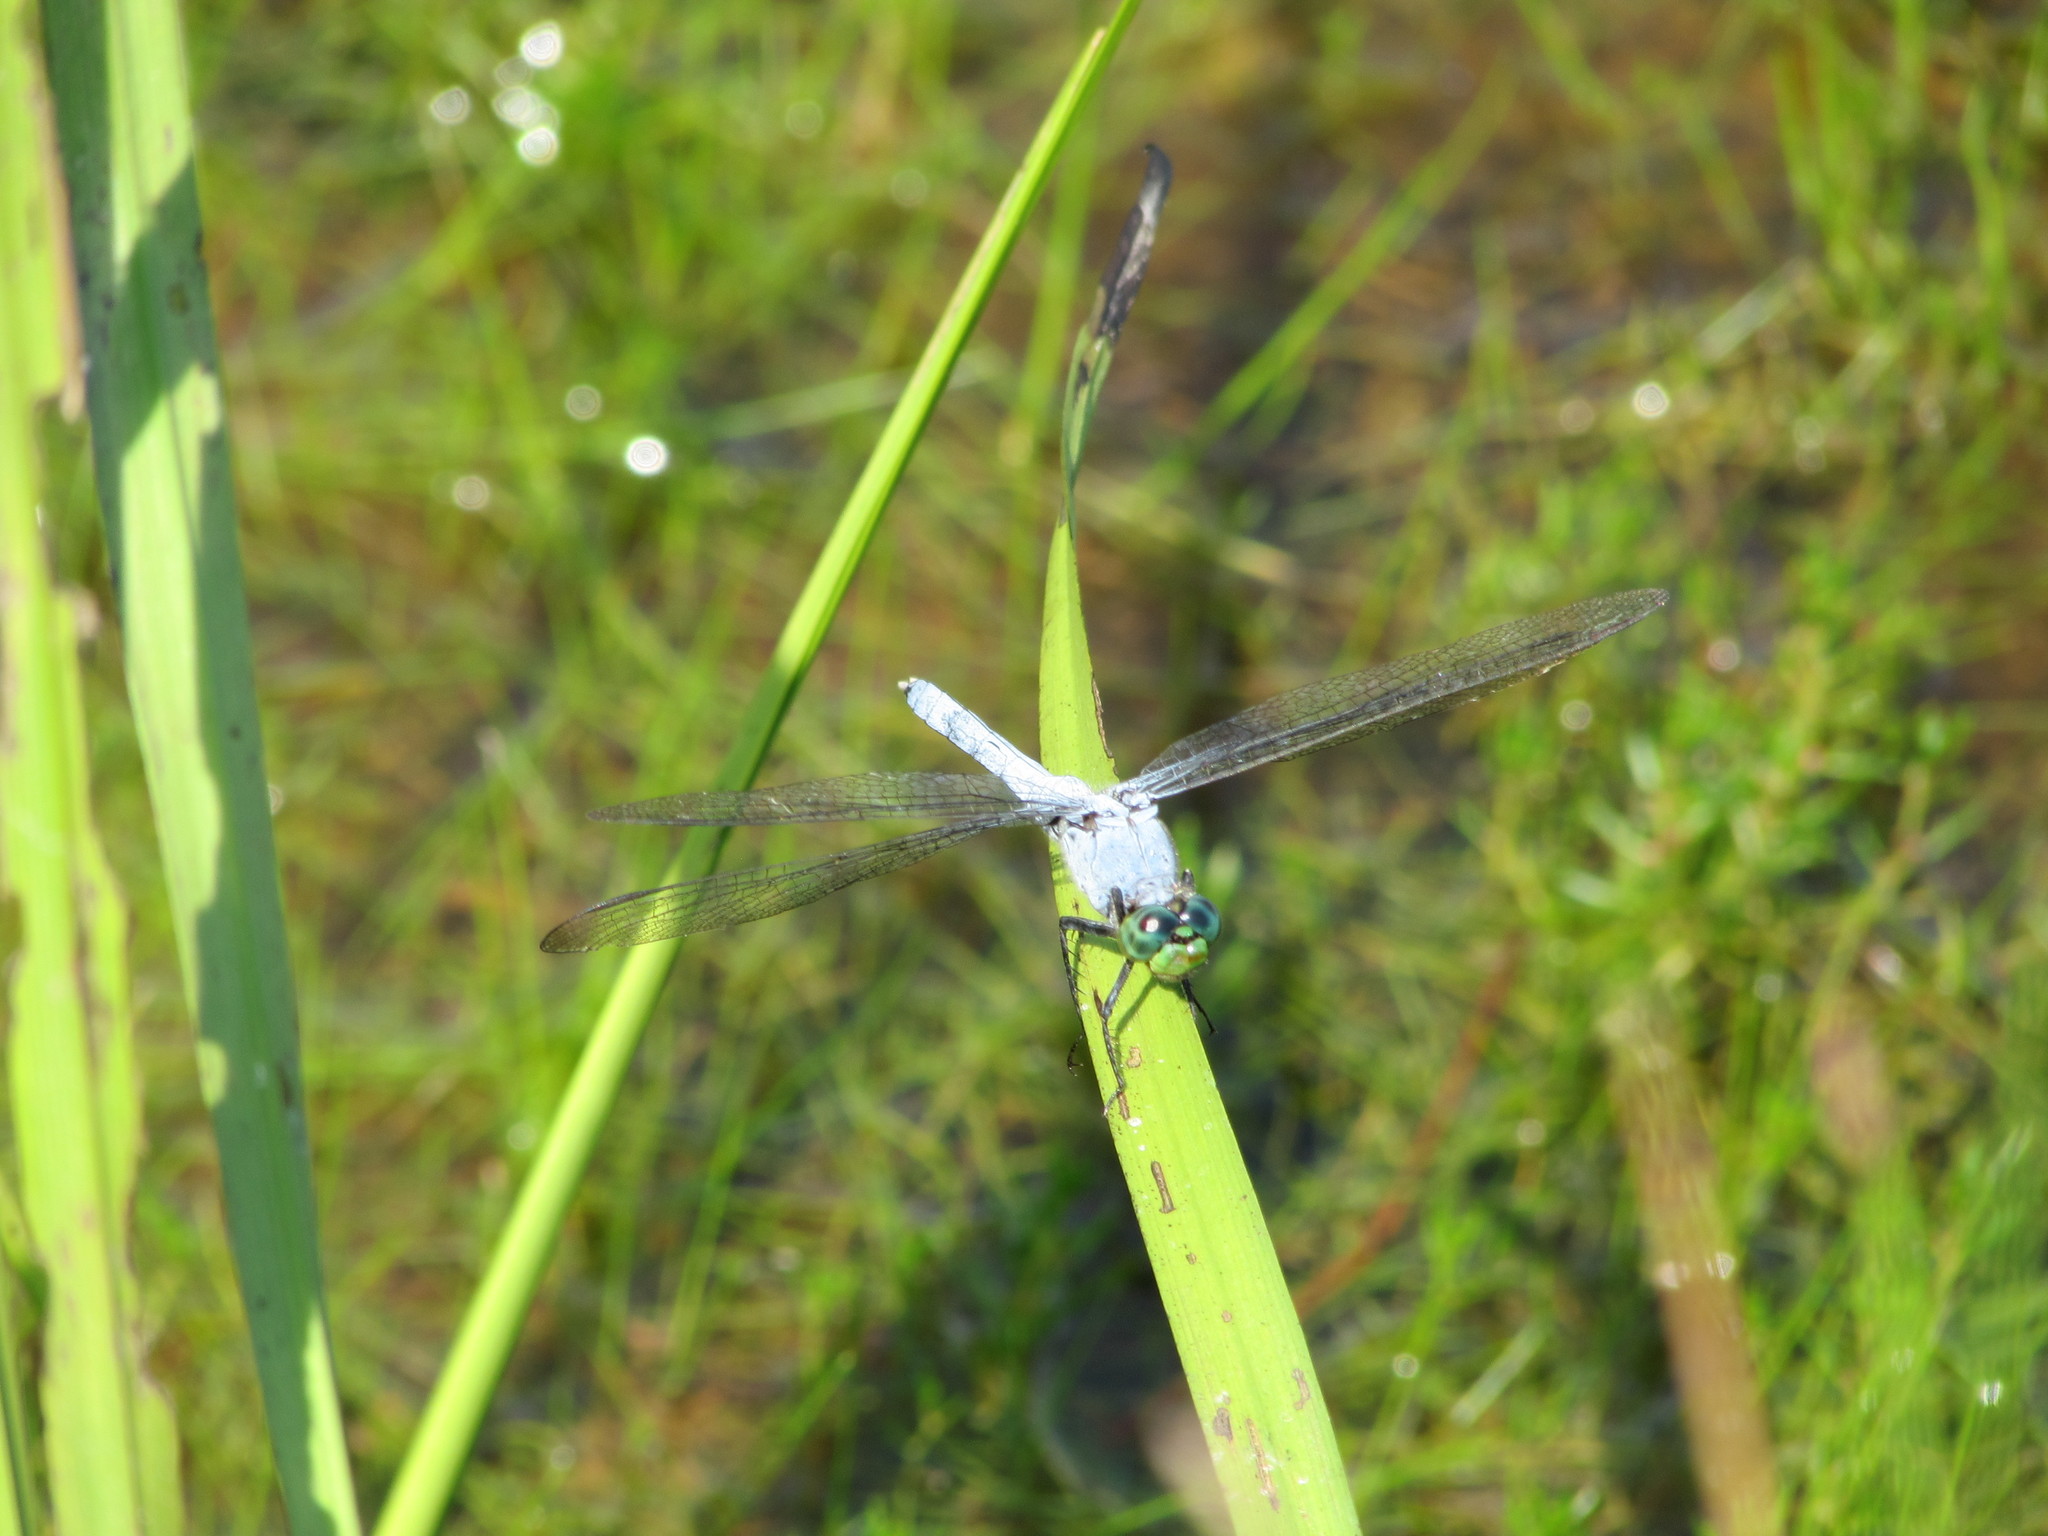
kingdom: Animalia
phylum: Arthropoda
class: Insecta
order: Odonata
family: Libellulidae
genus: Erythemis
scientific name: Erythemis simplicicollis
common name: Eastern pondhawk
